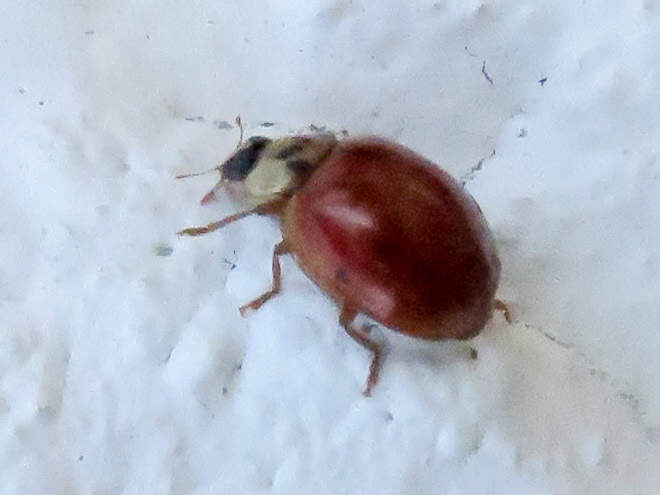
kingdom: Animalia
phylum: Arthropoda
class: Insecta
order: Coleoptera
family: Coccinellidae
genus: Harmonia
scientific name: Harmonia axyridis
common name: Harlequin ladybird
